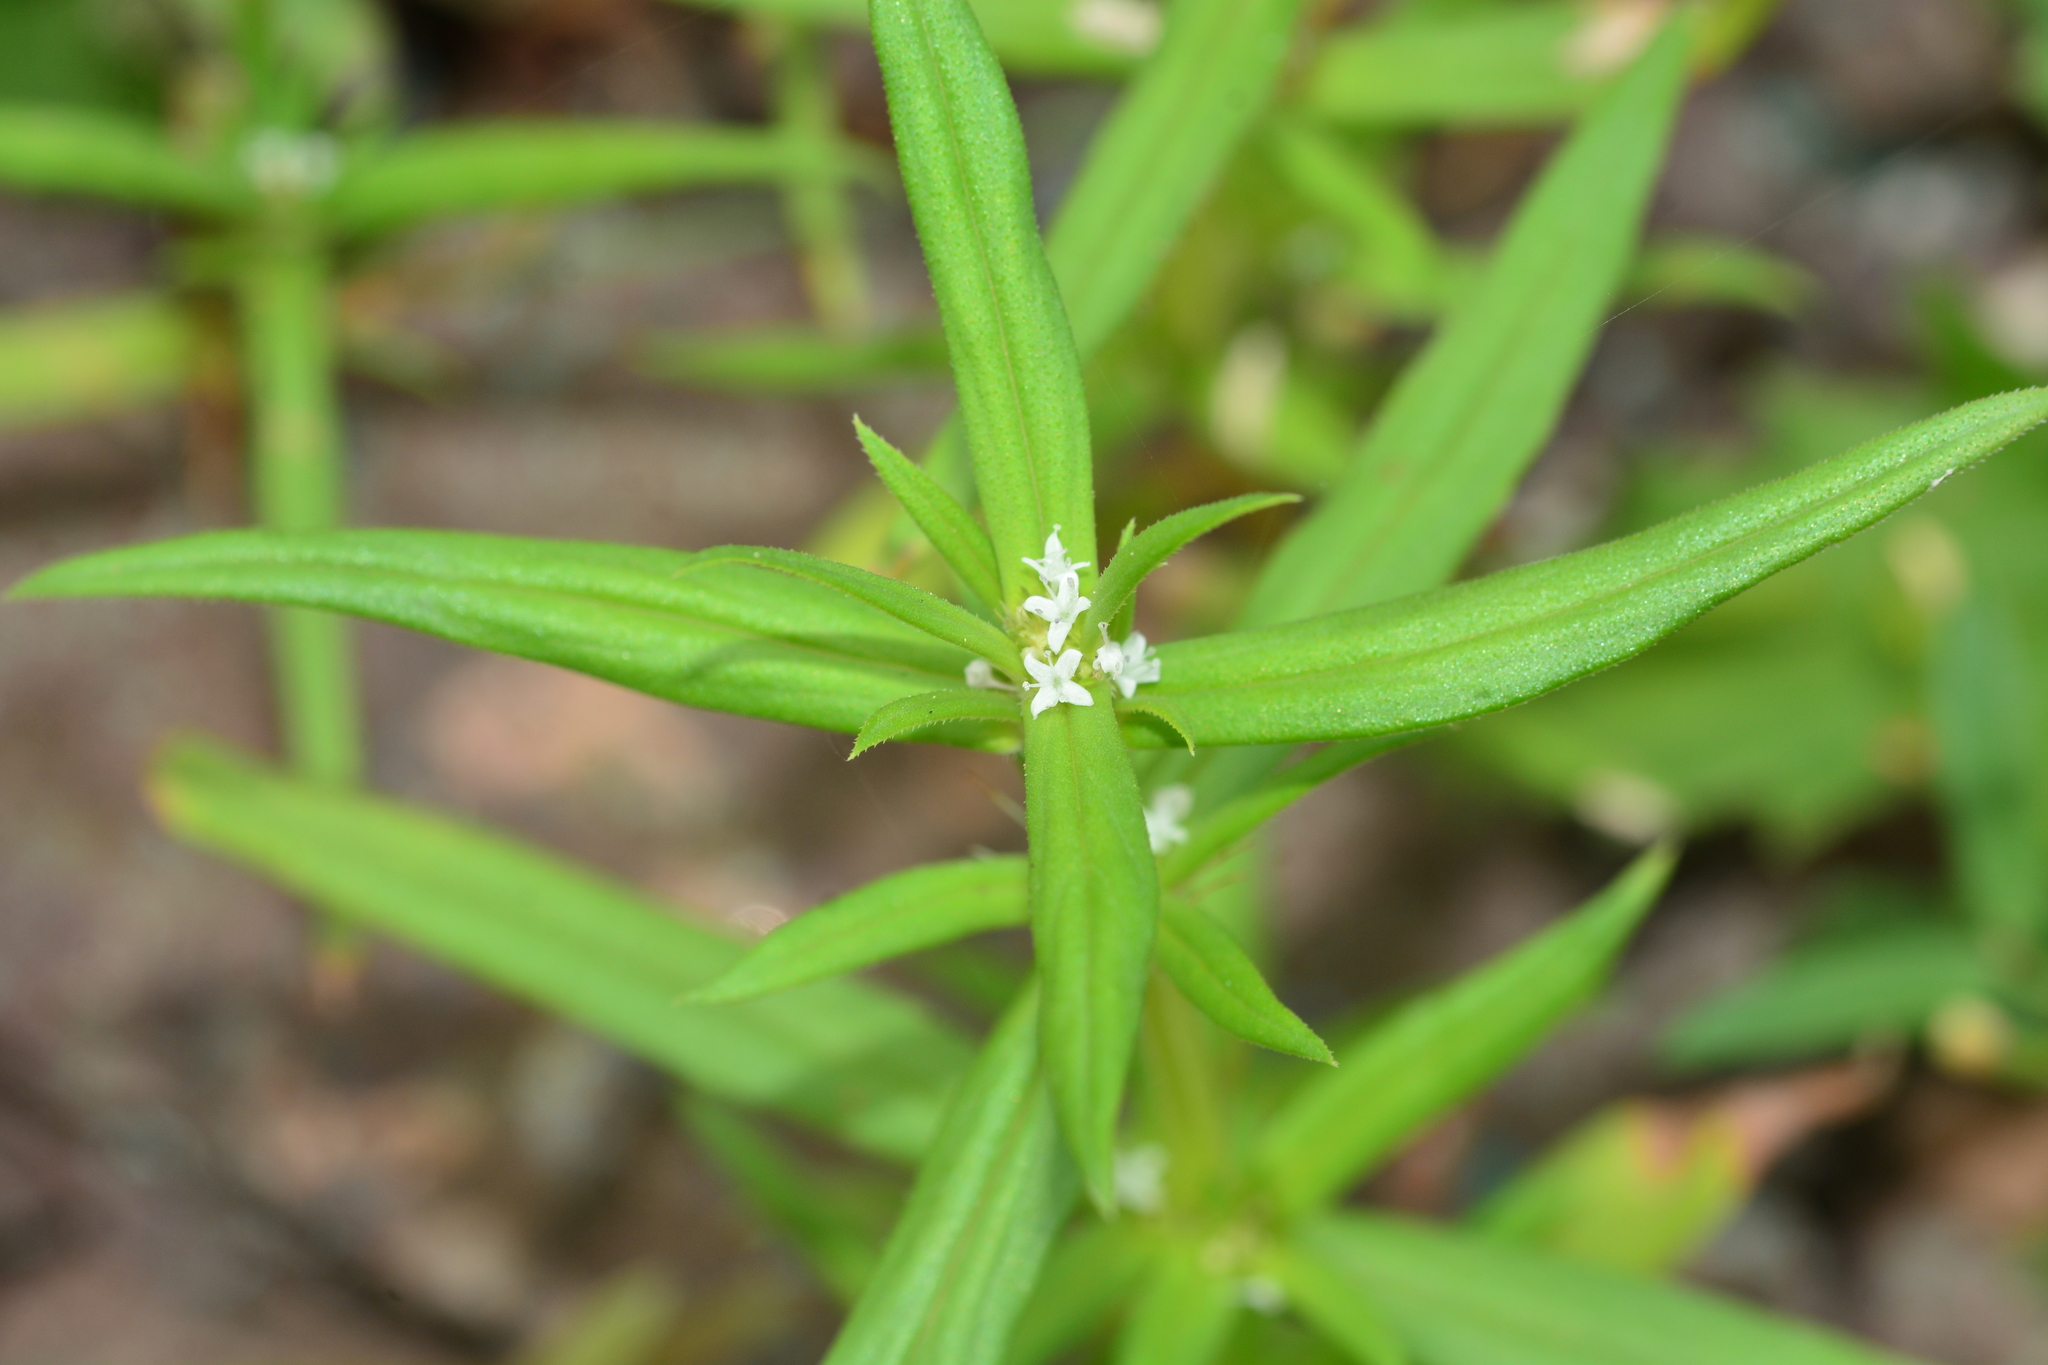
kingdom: Plantae
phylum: Tracheophyta
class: Magnoliopsida
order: Gentianales
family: Rubiaceae
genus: Spermacoce
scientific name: Spermacoce pusilla
